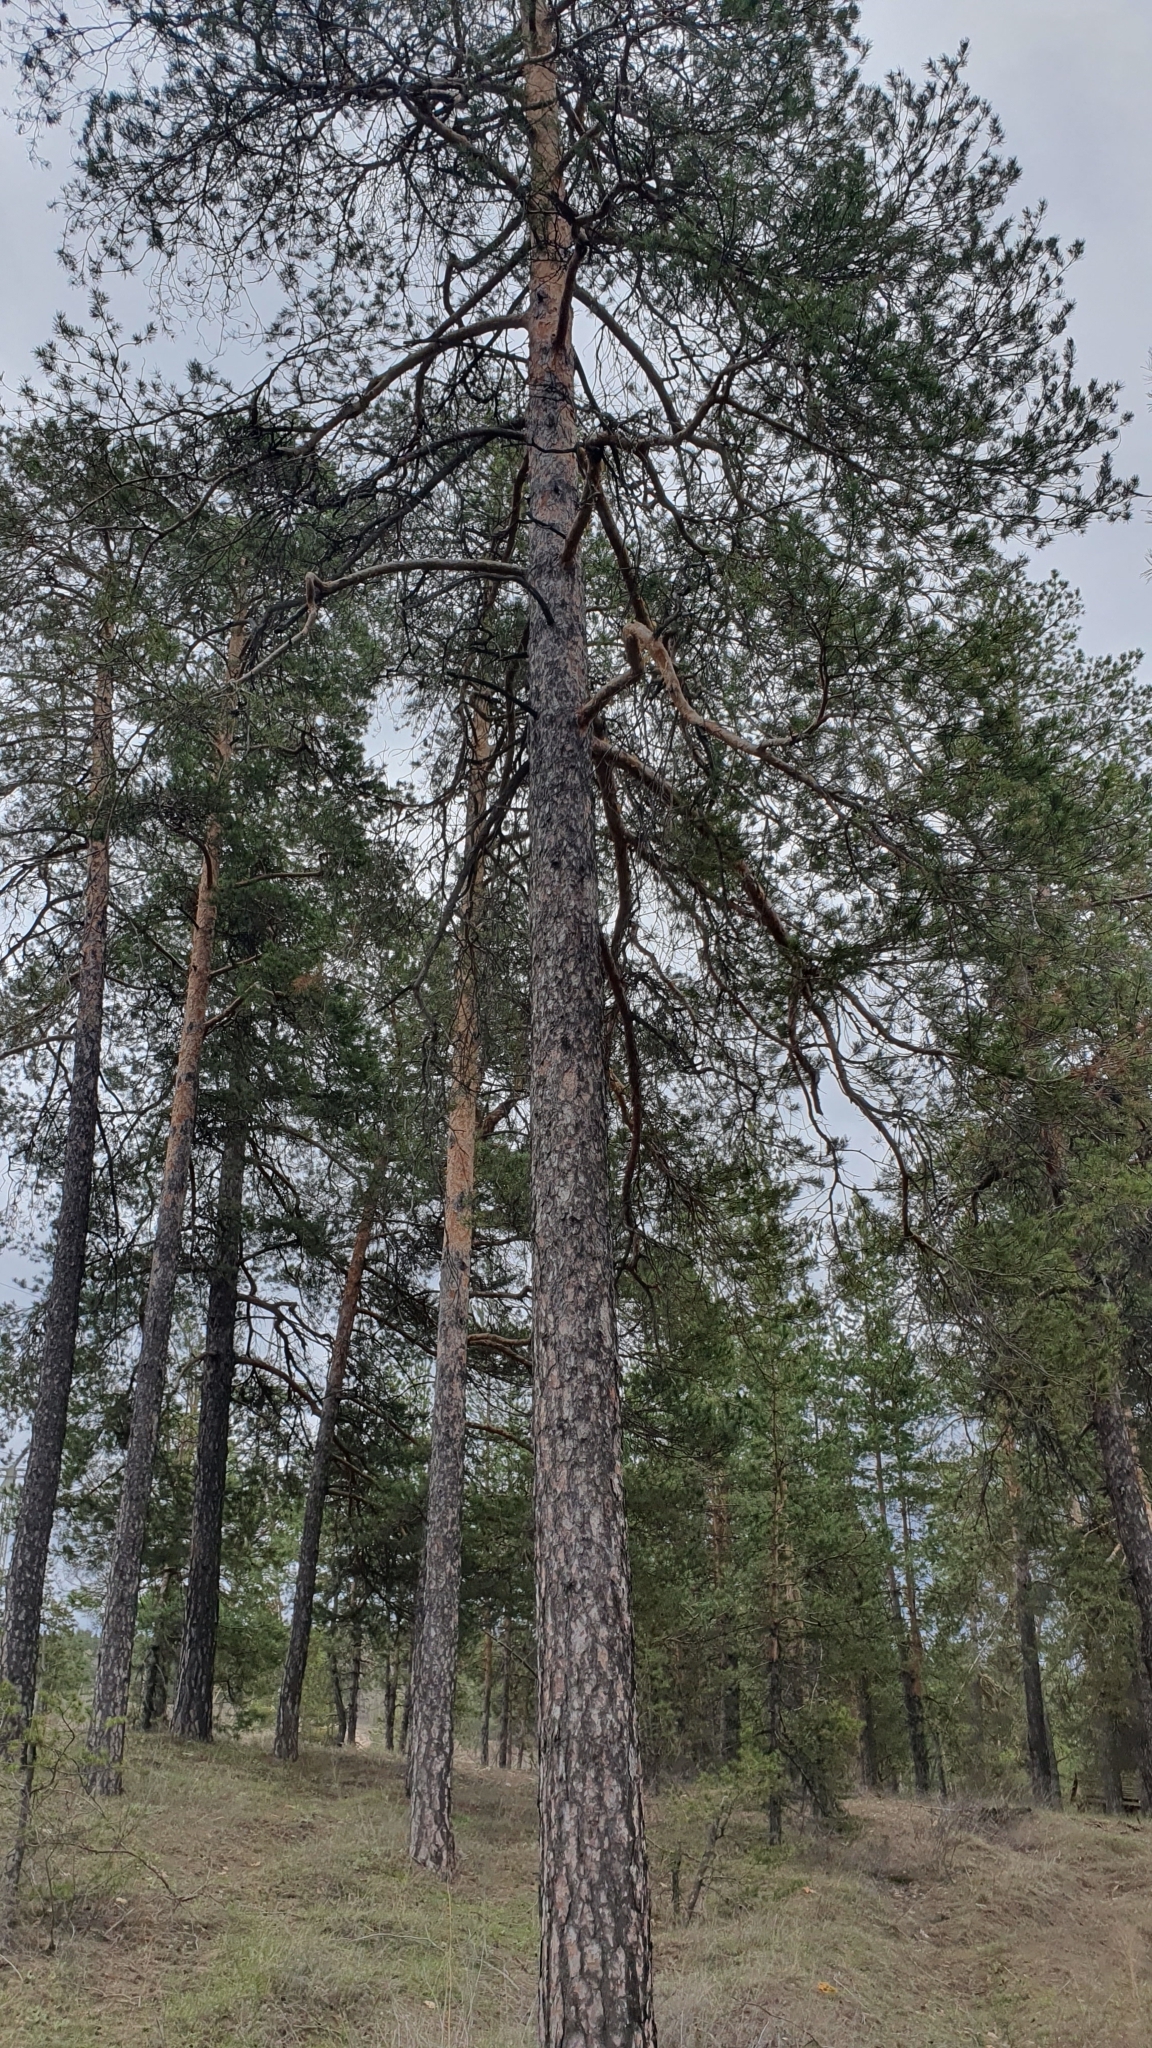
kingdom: Plantae
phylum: Tracheophyta
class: Pinopsida
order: Pinales
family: Pinaceae
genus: Pinus
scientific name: Pinus sylvestris
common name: Scots pine
